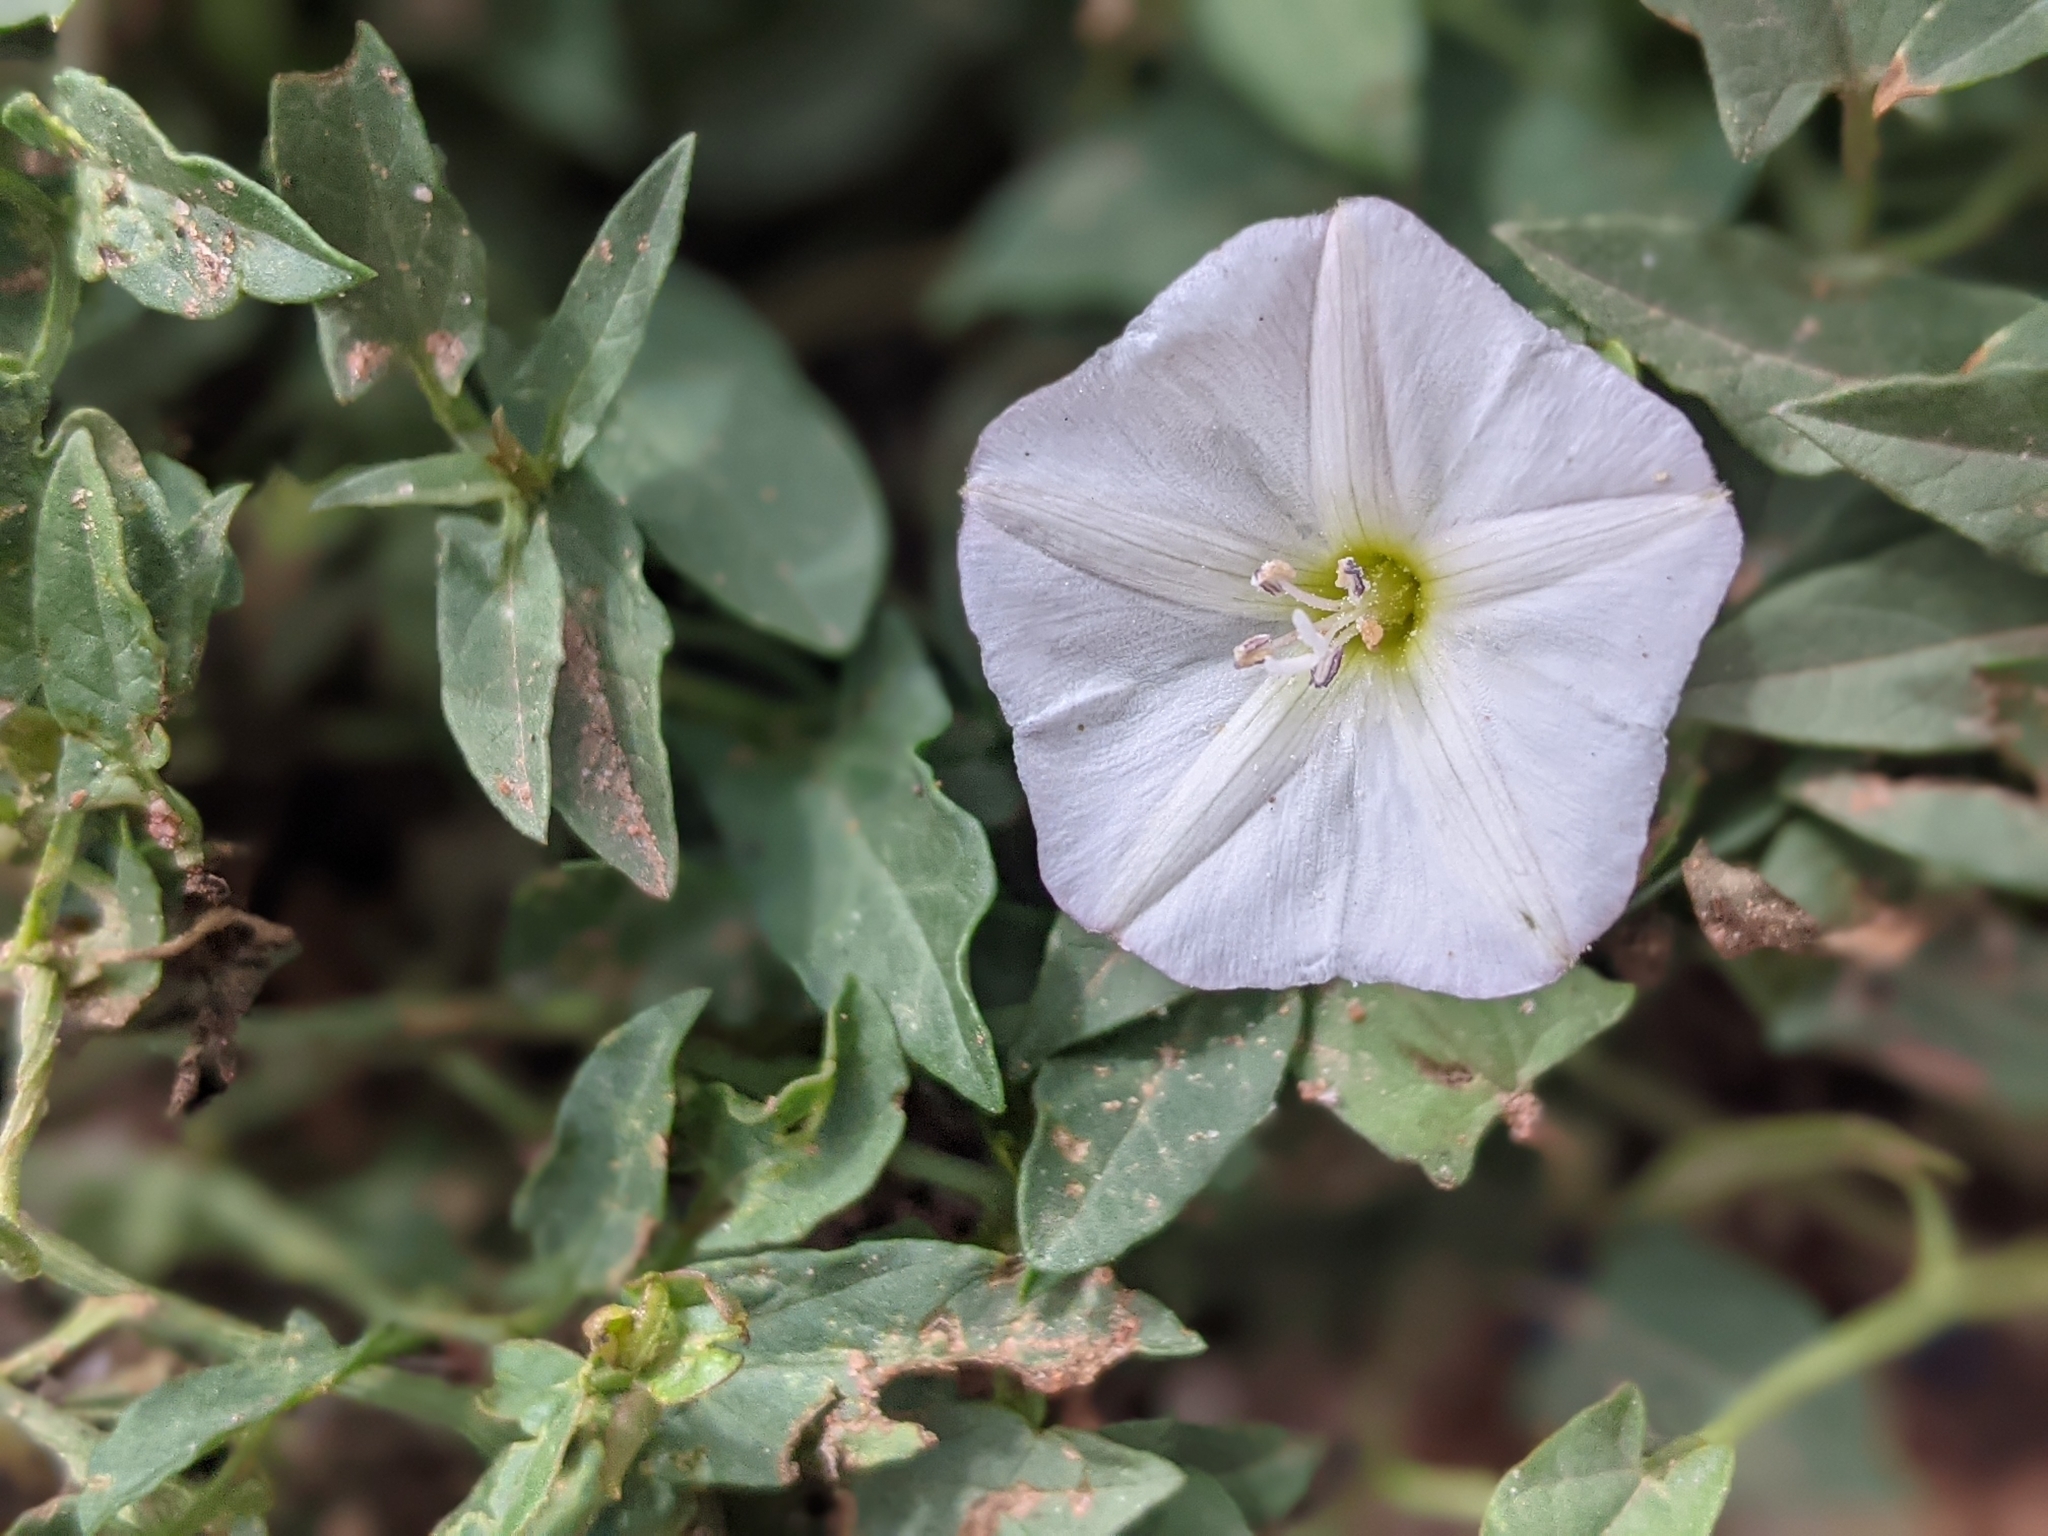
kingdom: Plantae
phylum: Tracheophyta
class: Magnoliopsida
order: Solanales
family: Convolvulaceae
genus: Convolvulus
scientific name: Convolvulus arvensis
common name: Field bindweed
